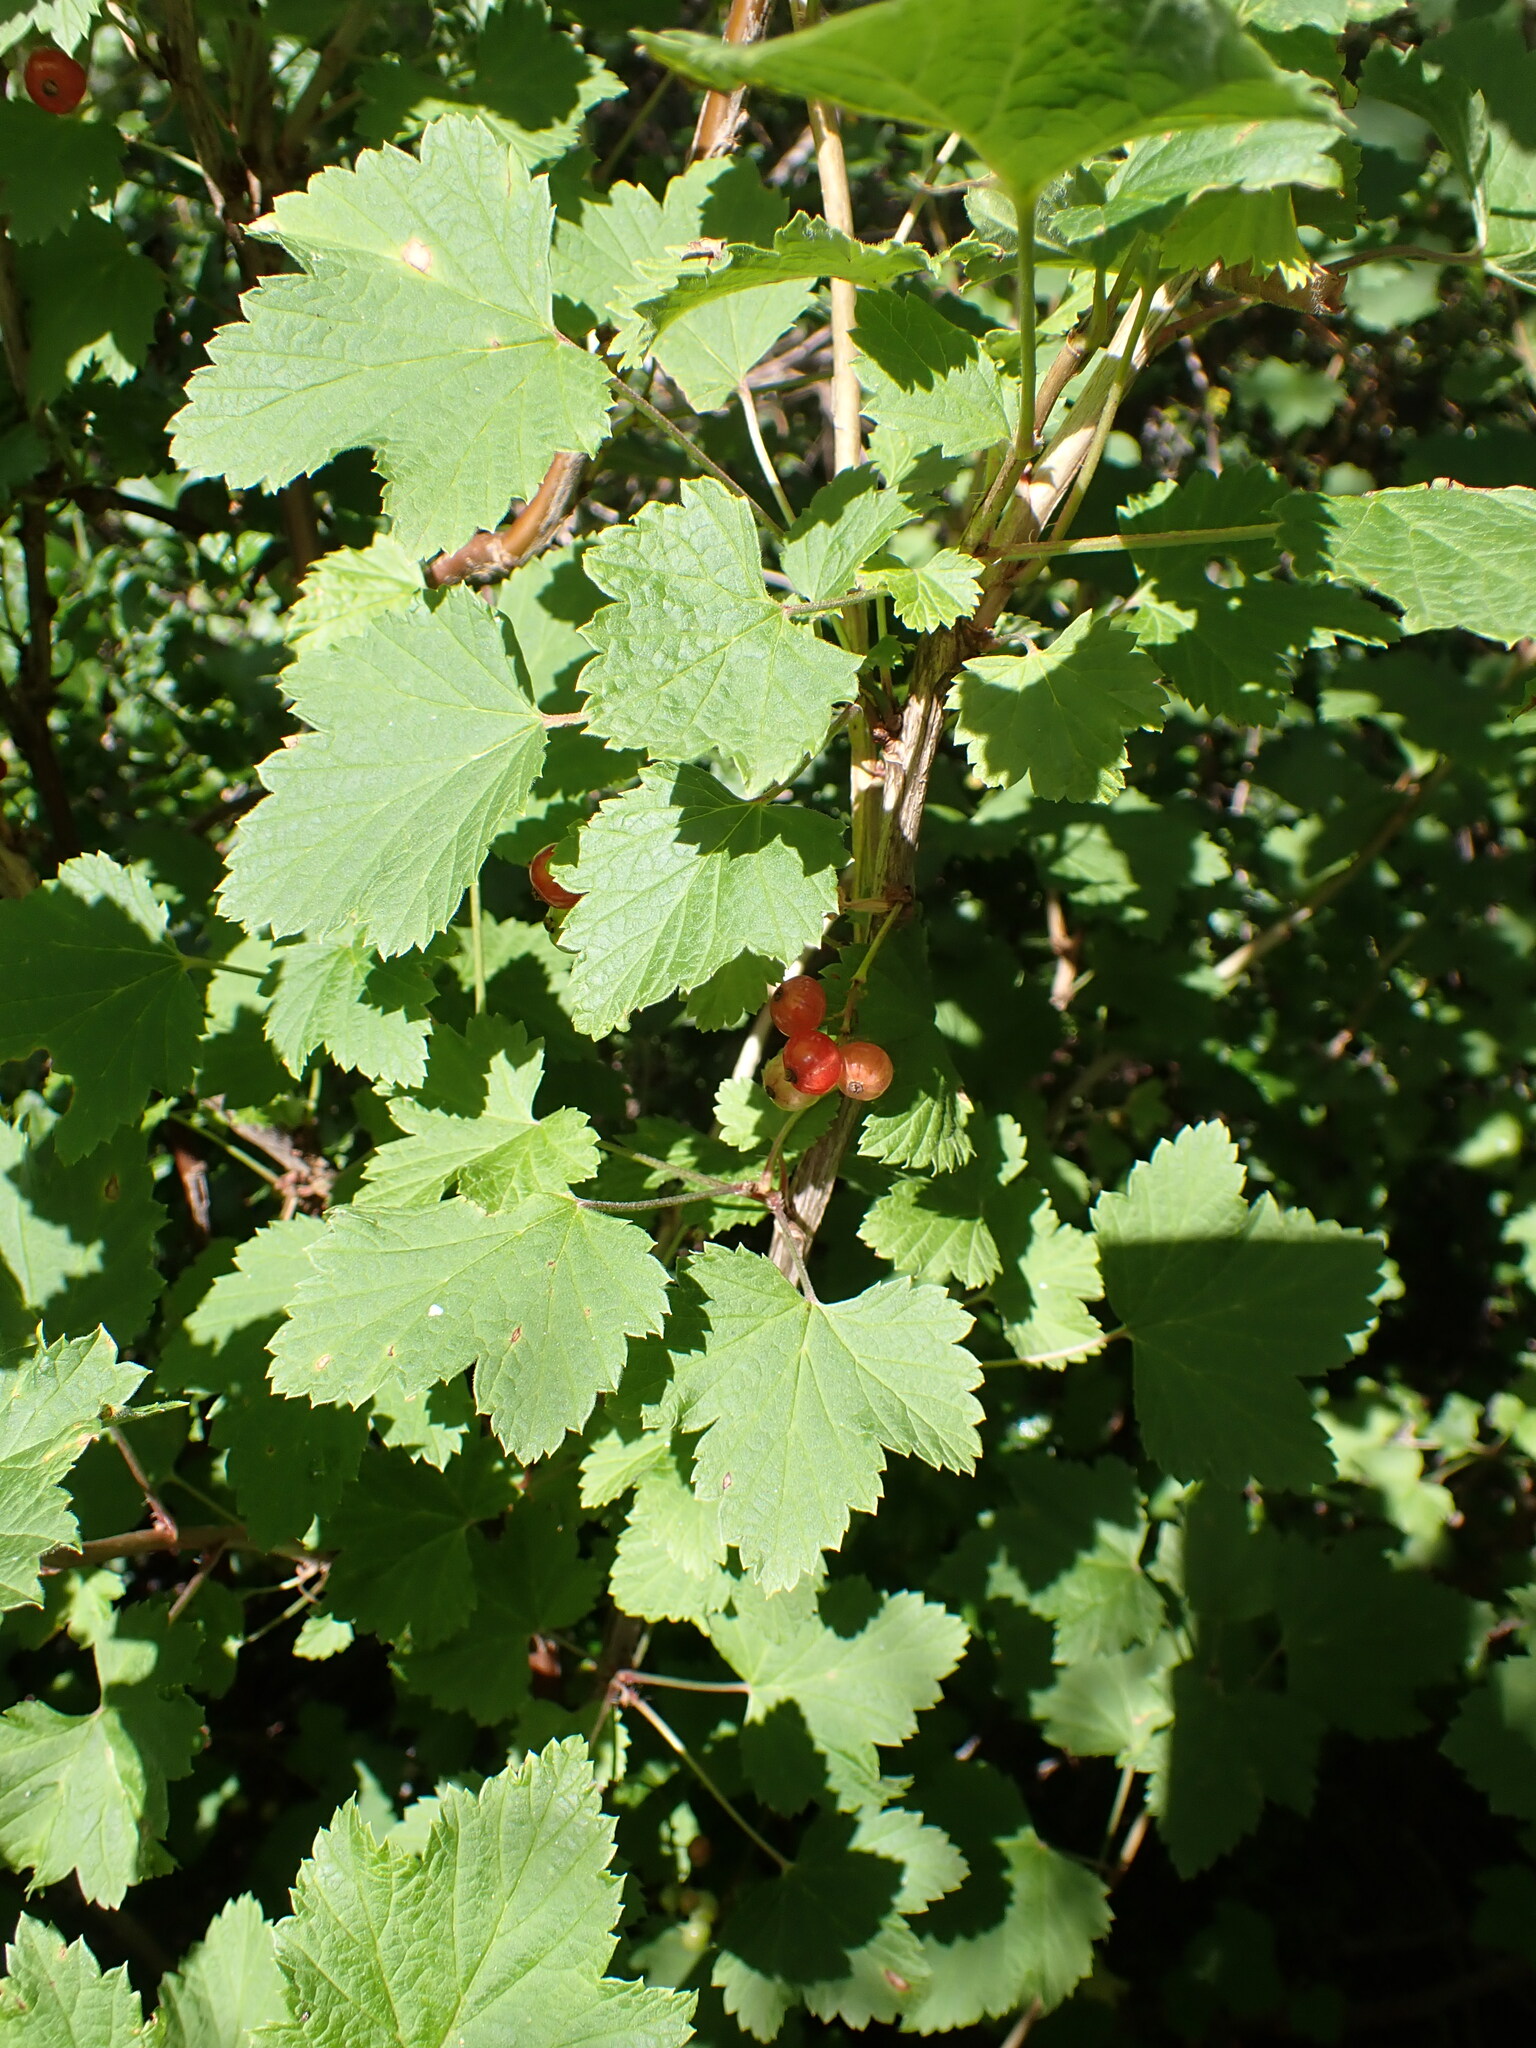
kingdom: Plantae
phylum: Tracheophyta
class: Magnoliopsida
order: Saxifragales
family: Grossulariaceae
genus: Ribes
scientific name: Ribes rubrum
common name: Red currant
